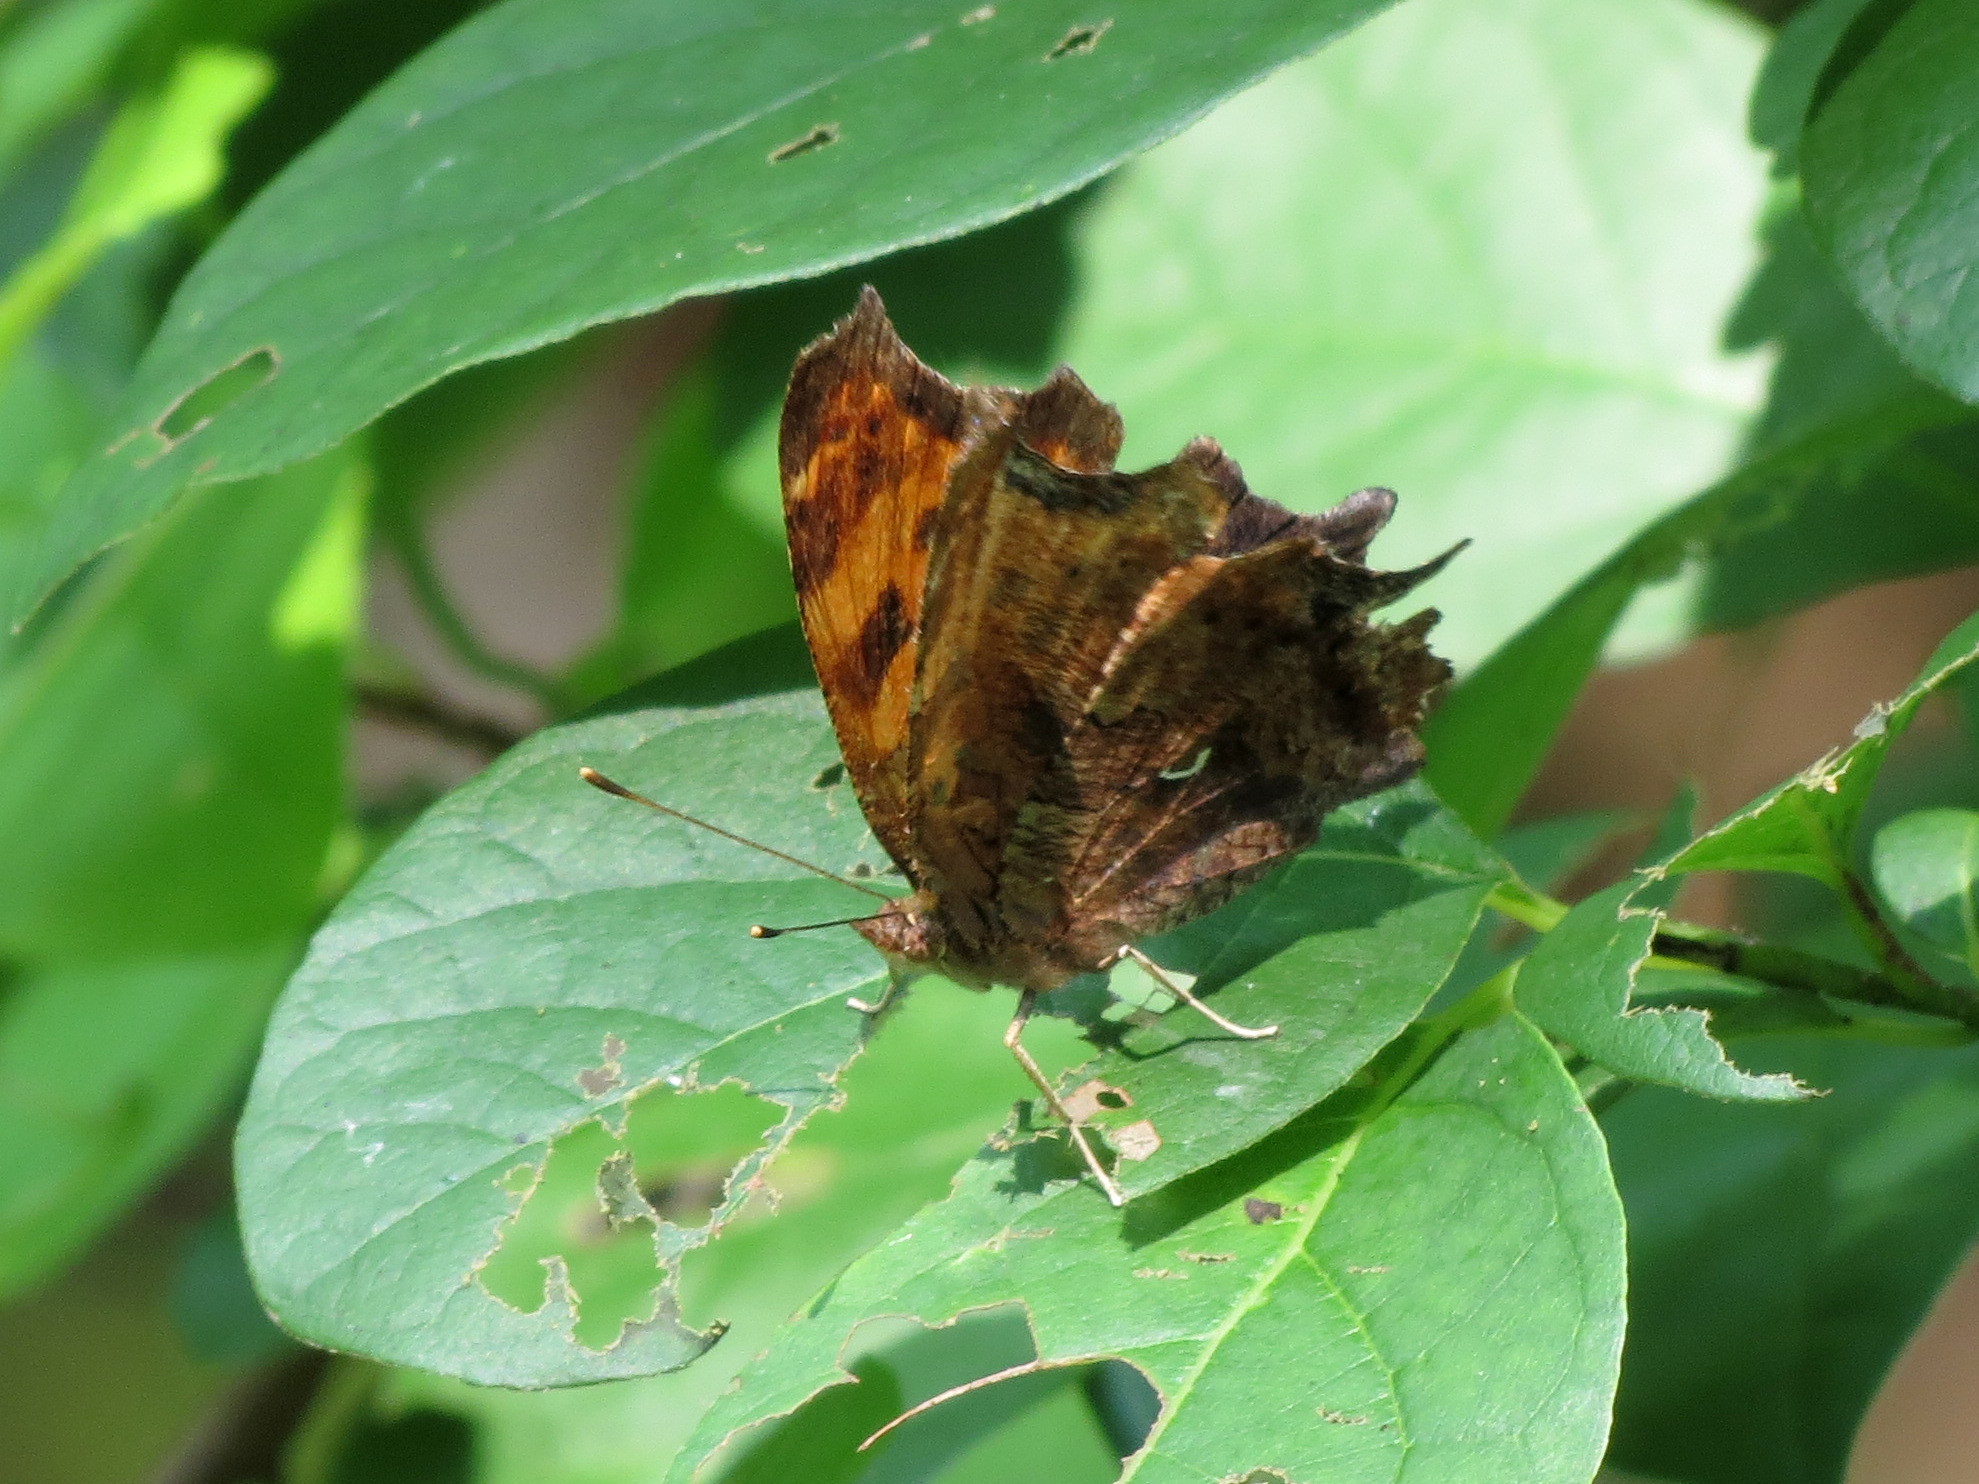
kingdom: Animalia
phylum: Arthropoda
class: Insecta
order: Lepidoptera
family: Nymphalidae
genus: Polygonia
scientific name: Polygonia comma
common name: Eastern comma
